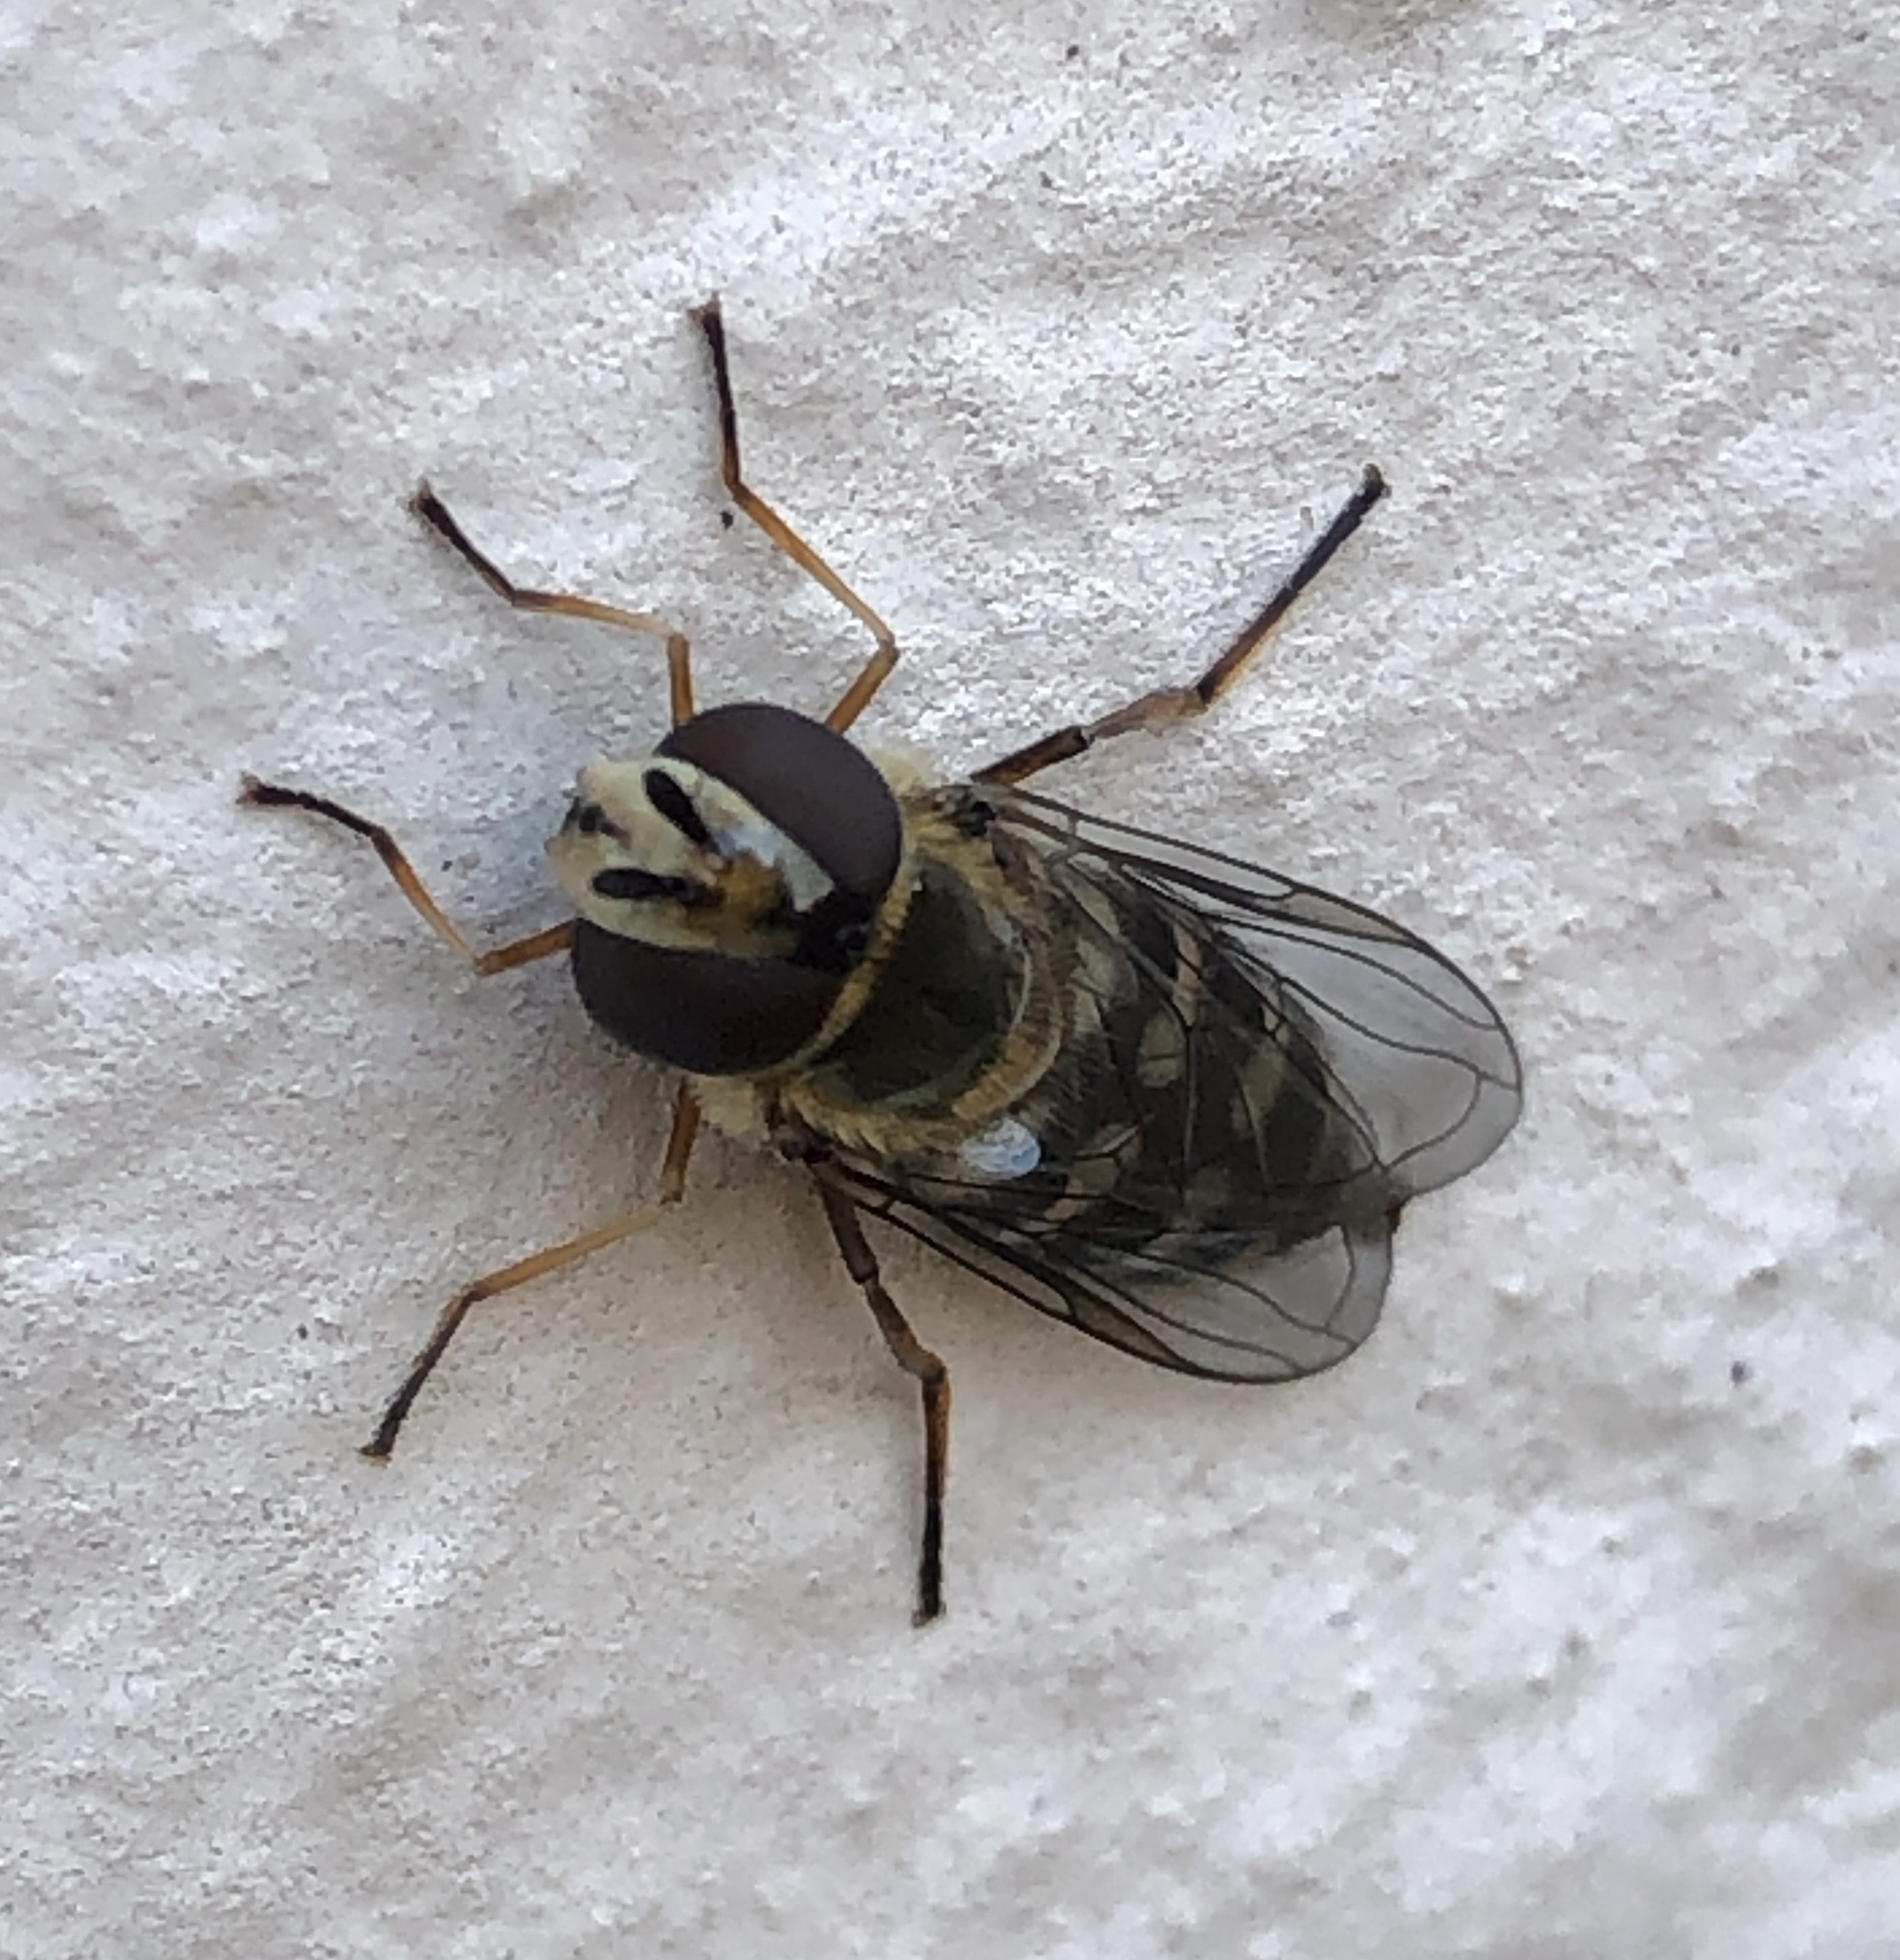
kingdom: Animalia
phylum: Arthropoda
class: Insecta
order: Diptera
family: Syrphidae
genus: Eupeodes
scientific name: Eupeodes luniger
